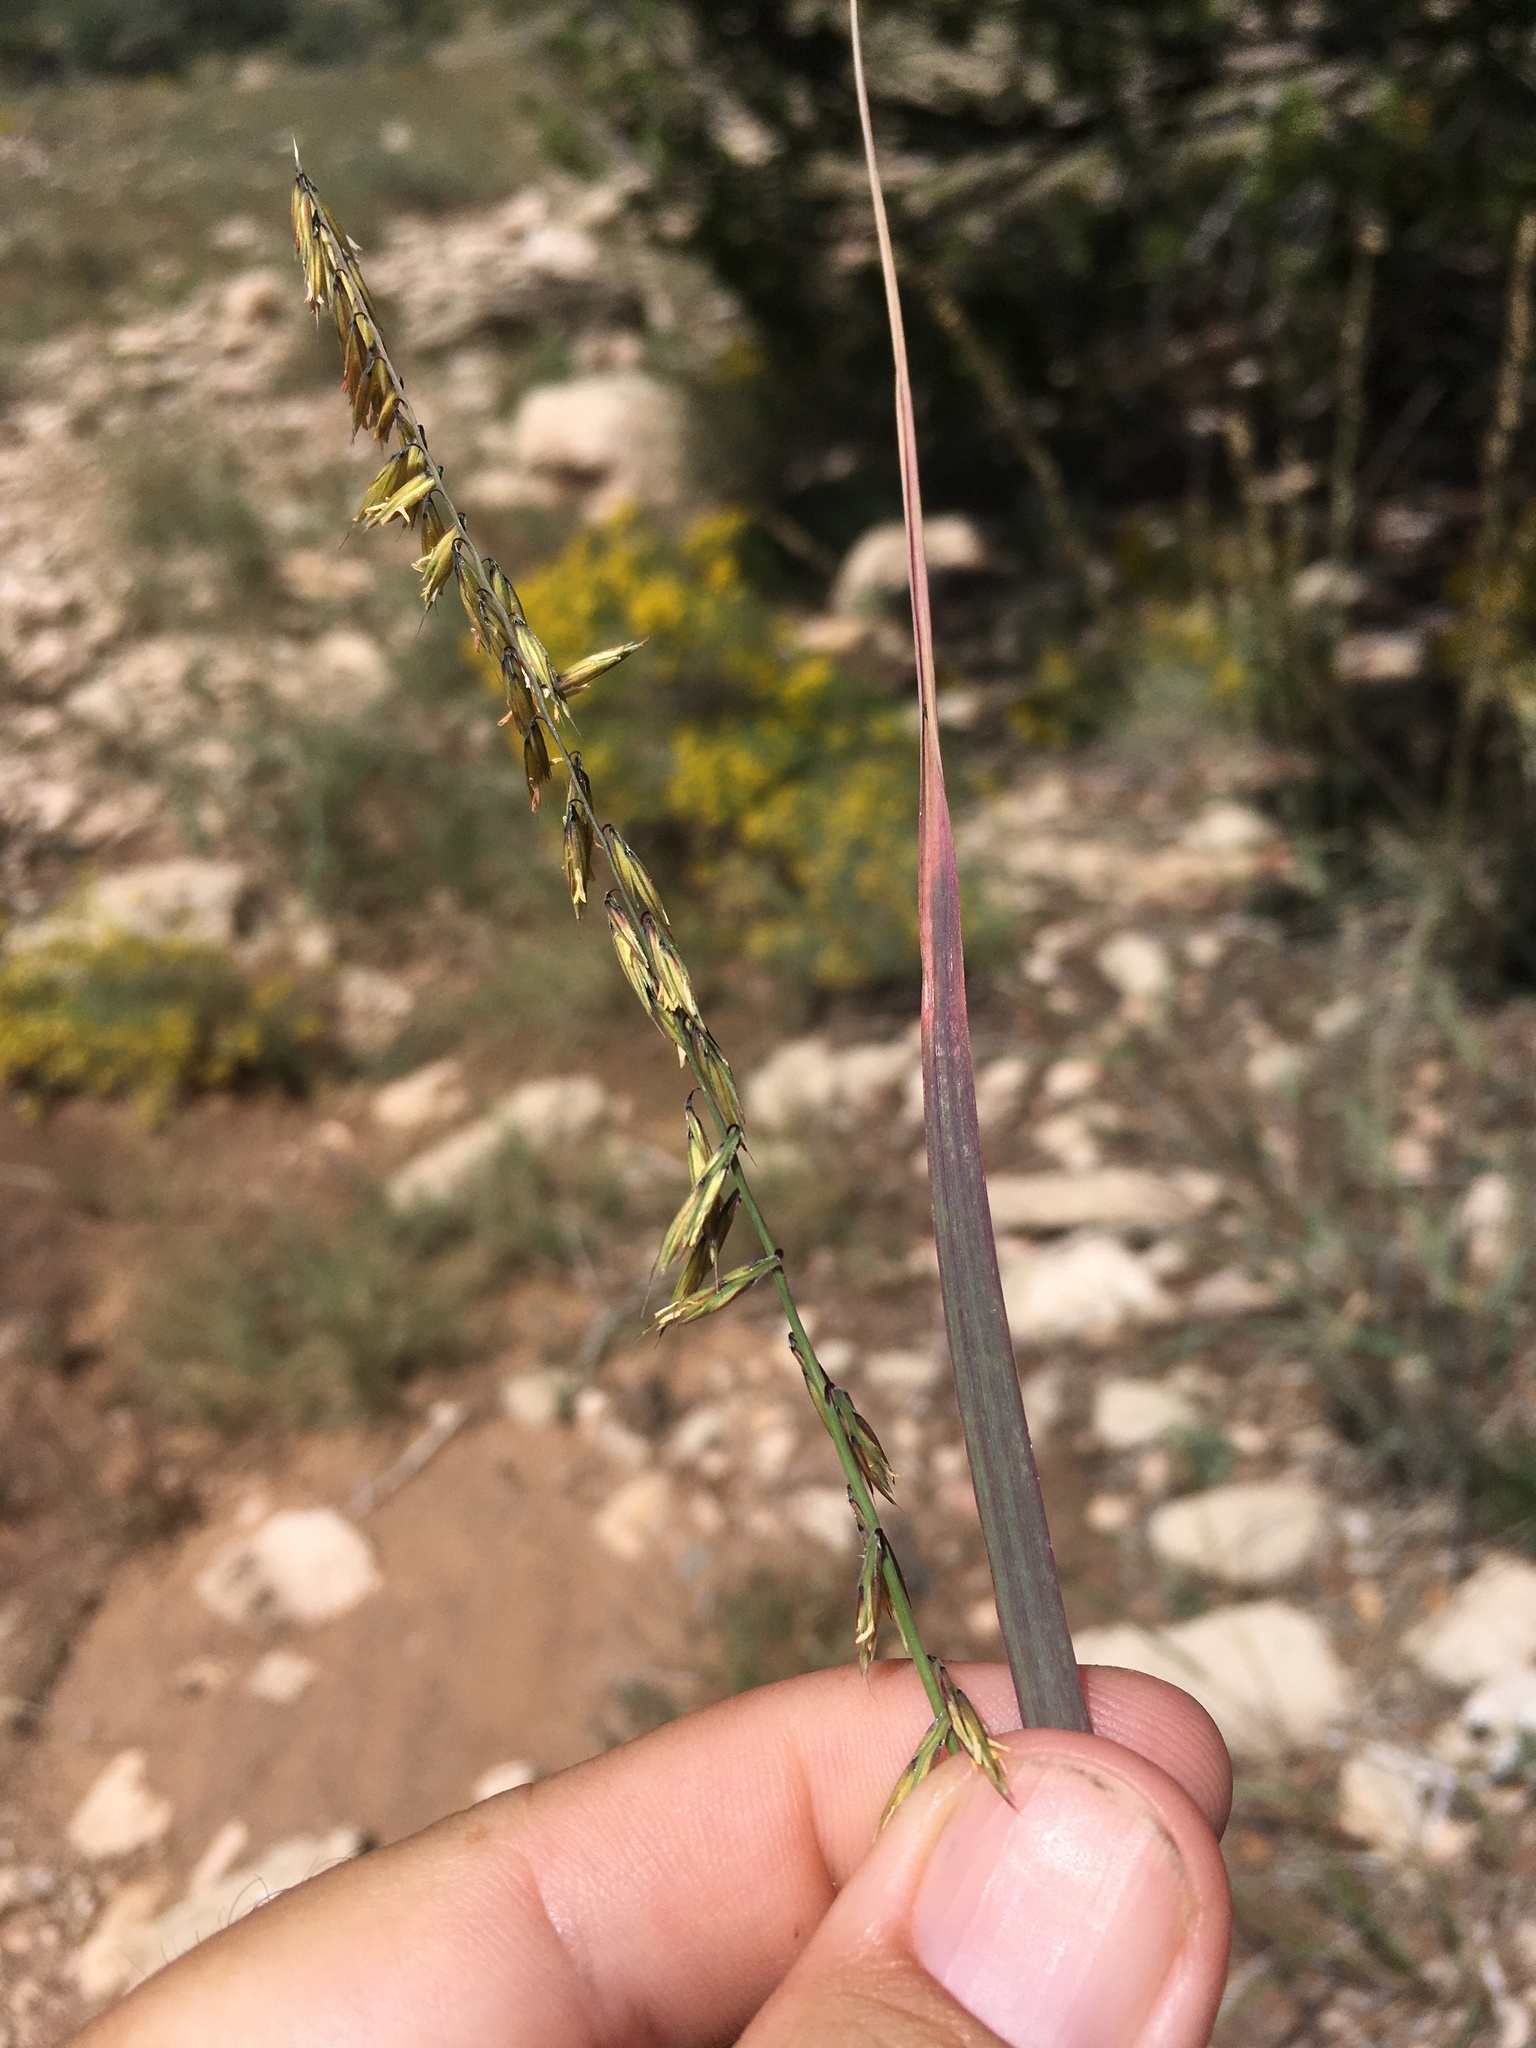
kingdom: Plantae
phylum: Tracheophyta
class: Liliopsida
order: Poales
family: Poaceae
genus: Bouteloua
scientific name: Bouteloua curtipendula
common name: Side-oats grama
